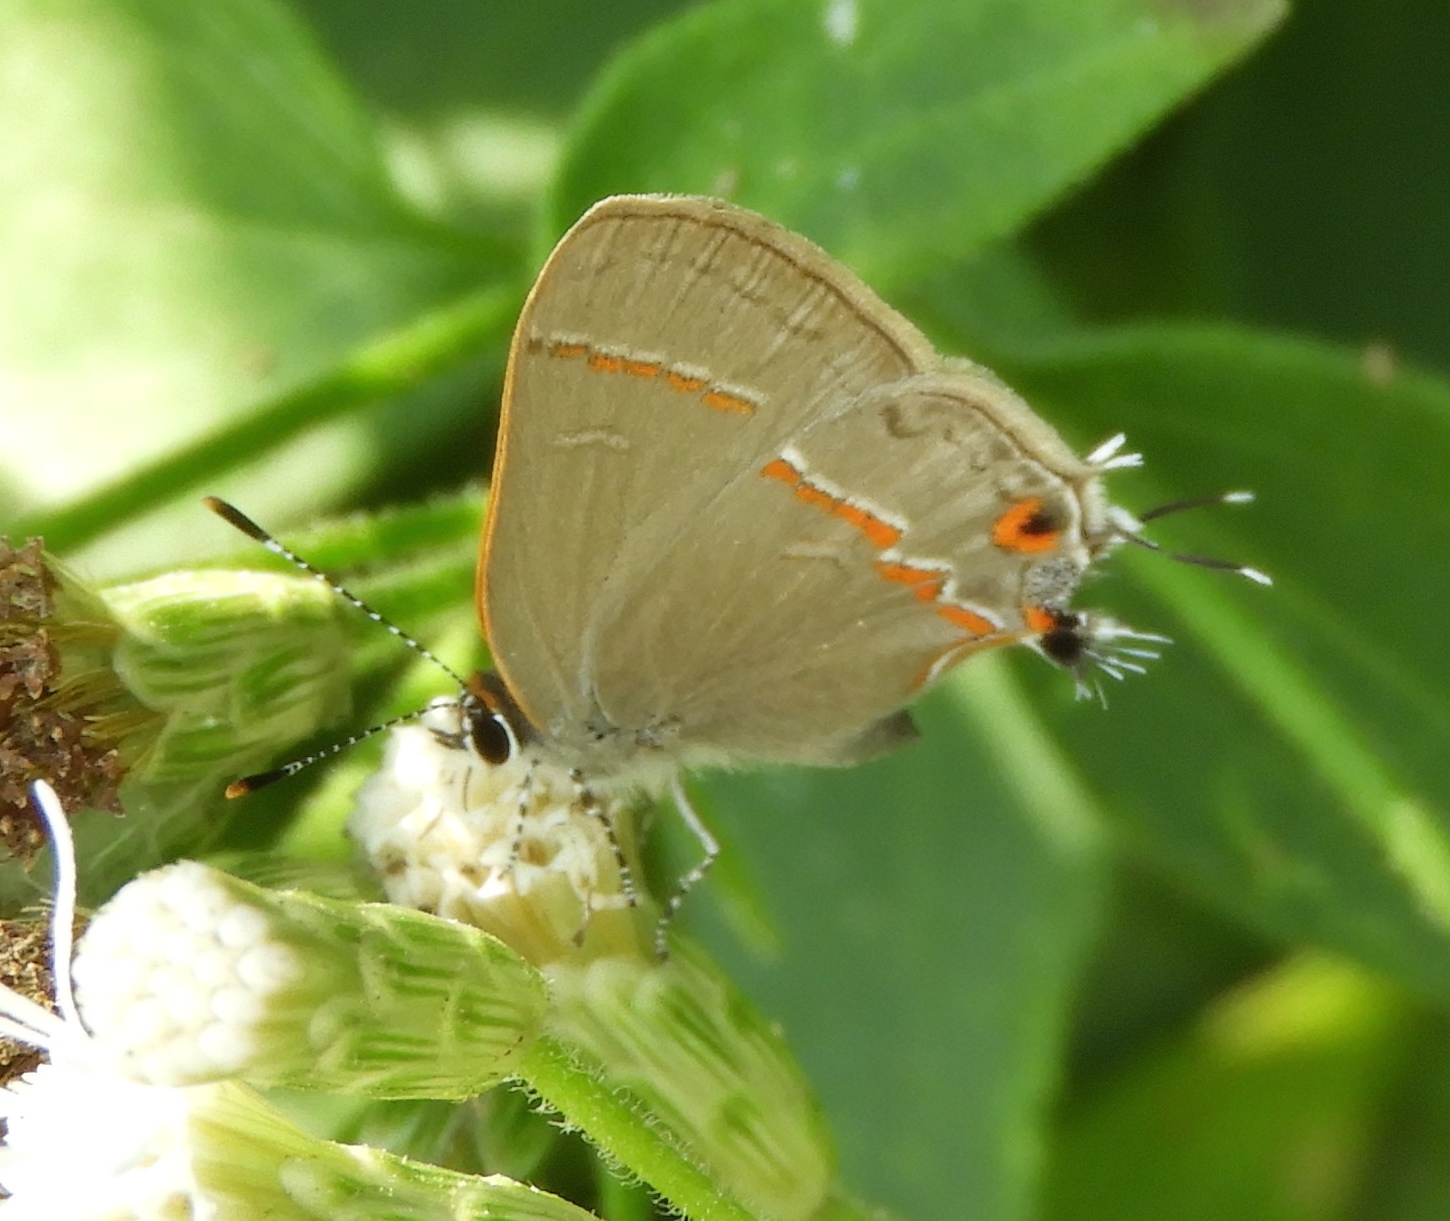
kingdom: Animalia
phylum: Arthropoda
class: Insecta
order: Lepidoptera
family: Lycaenidae
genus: Electrostrymon
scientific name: Electrostrymon endymion
